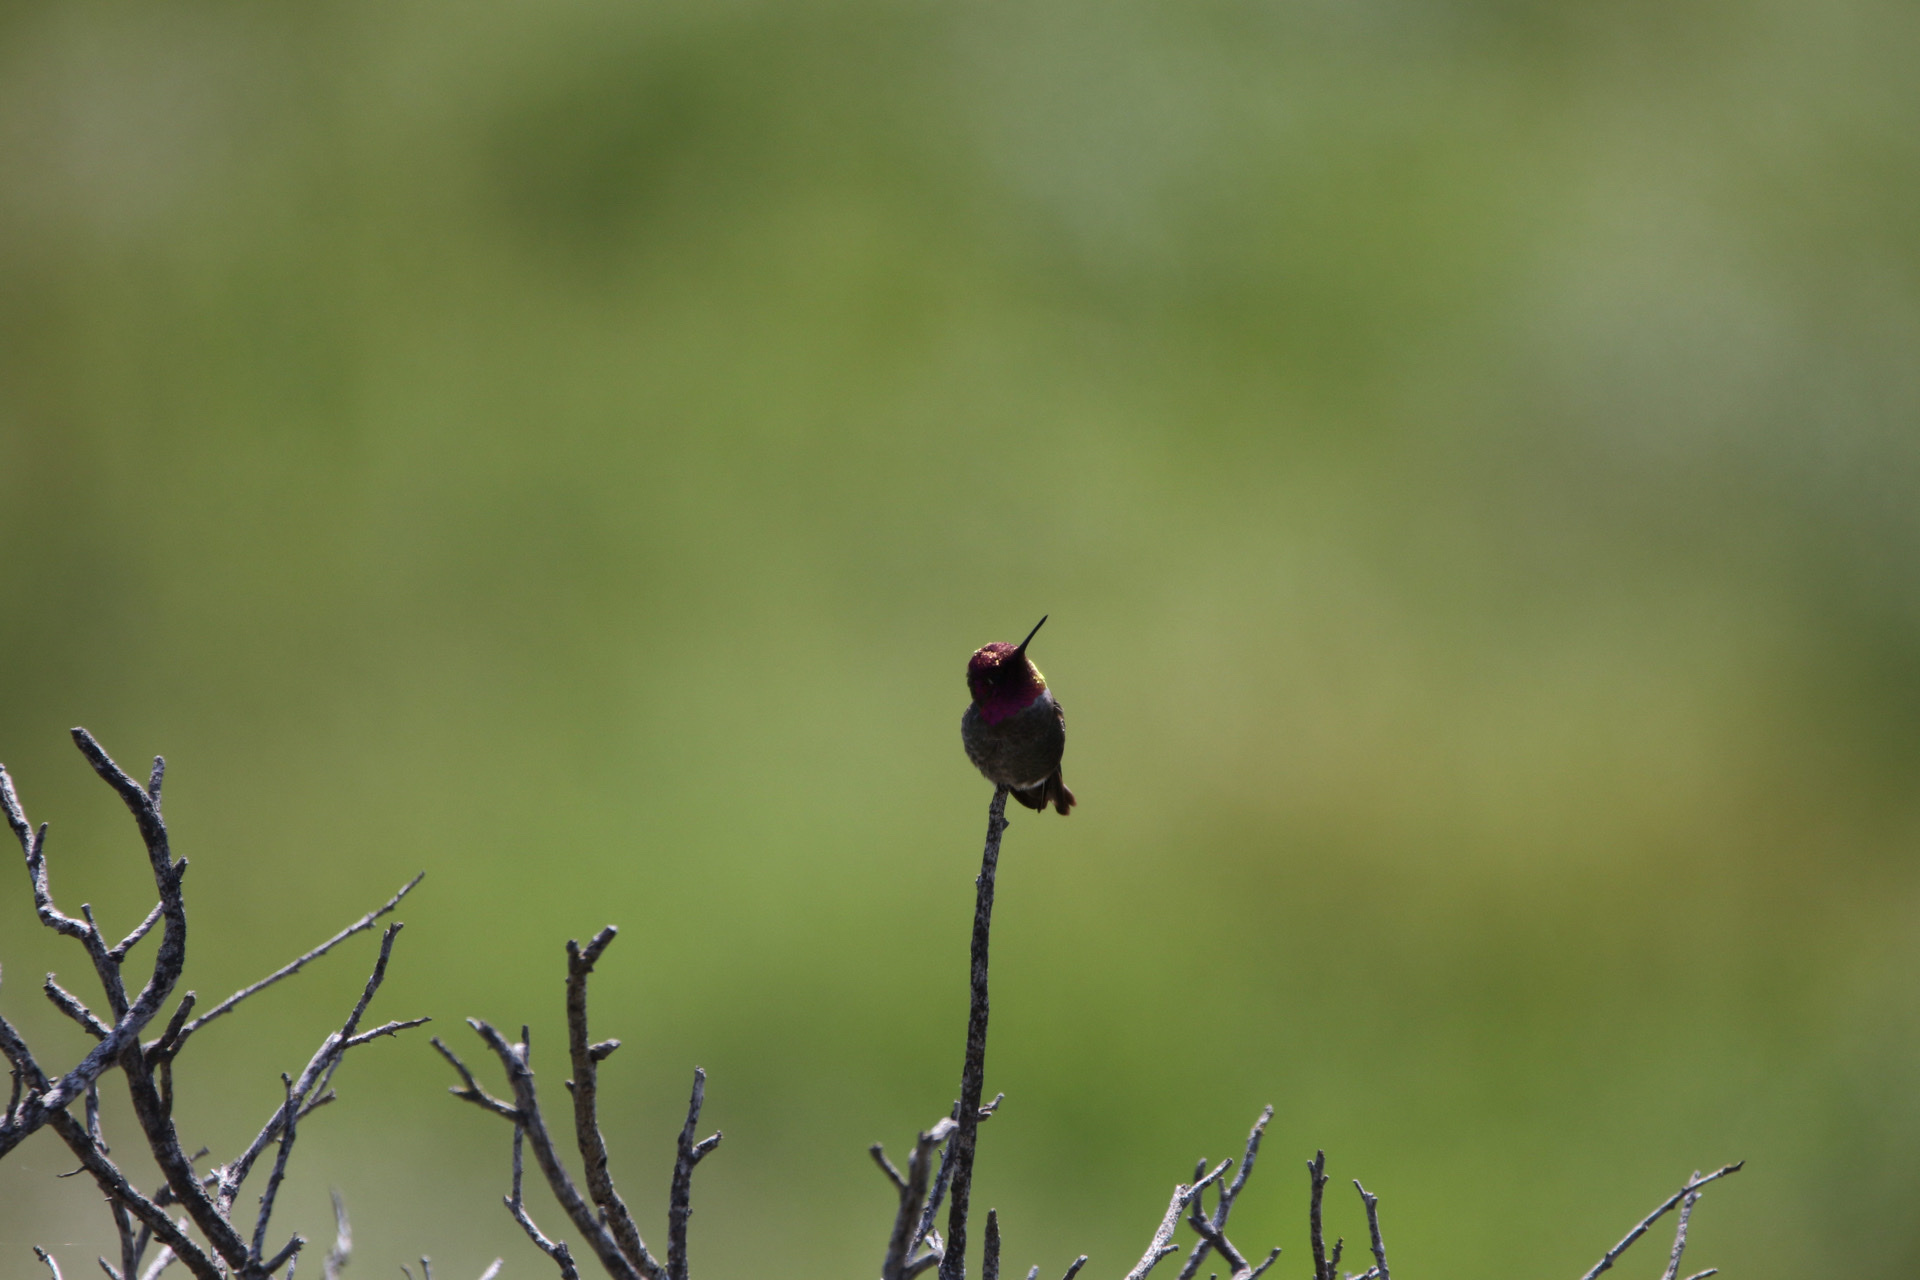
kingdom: Animalia
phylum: Chordata
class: Aves
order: Apodiformes
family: Trochilidae
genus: Calypte
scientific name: Calypte anna
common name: Anna's hummingbird
